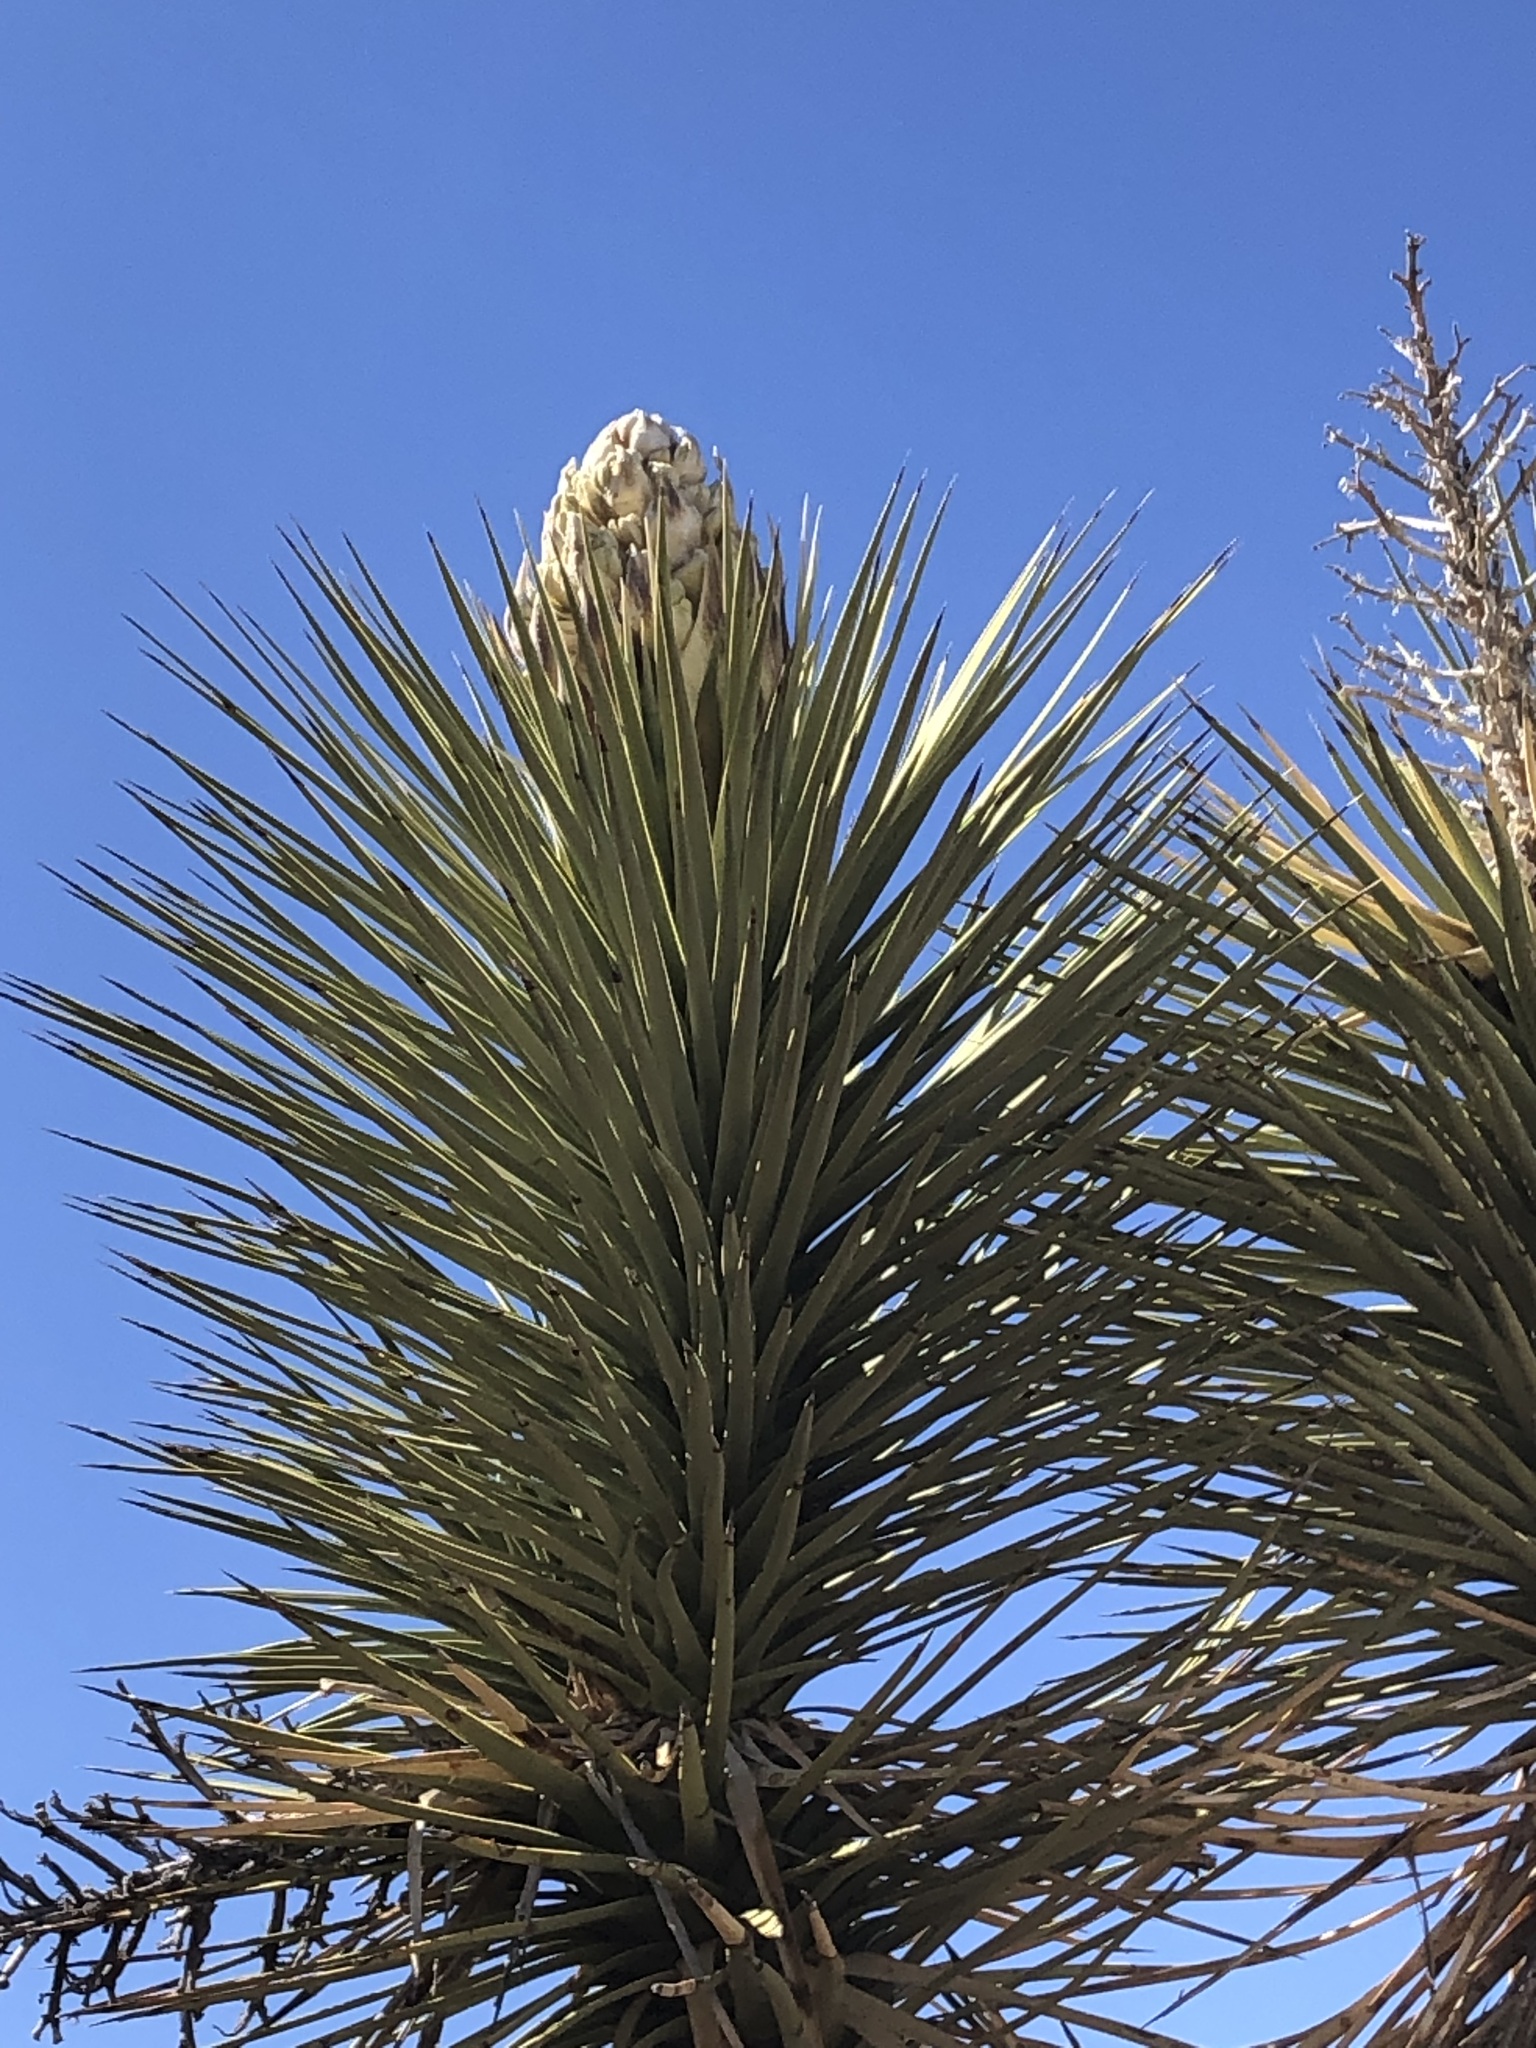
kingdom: Plantae
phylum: Tracheophyta
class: Liliopsida
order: Asparagales
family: Asparagaceae
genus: Yucca
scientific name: Yucca brevifolia
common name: Joshua tree
